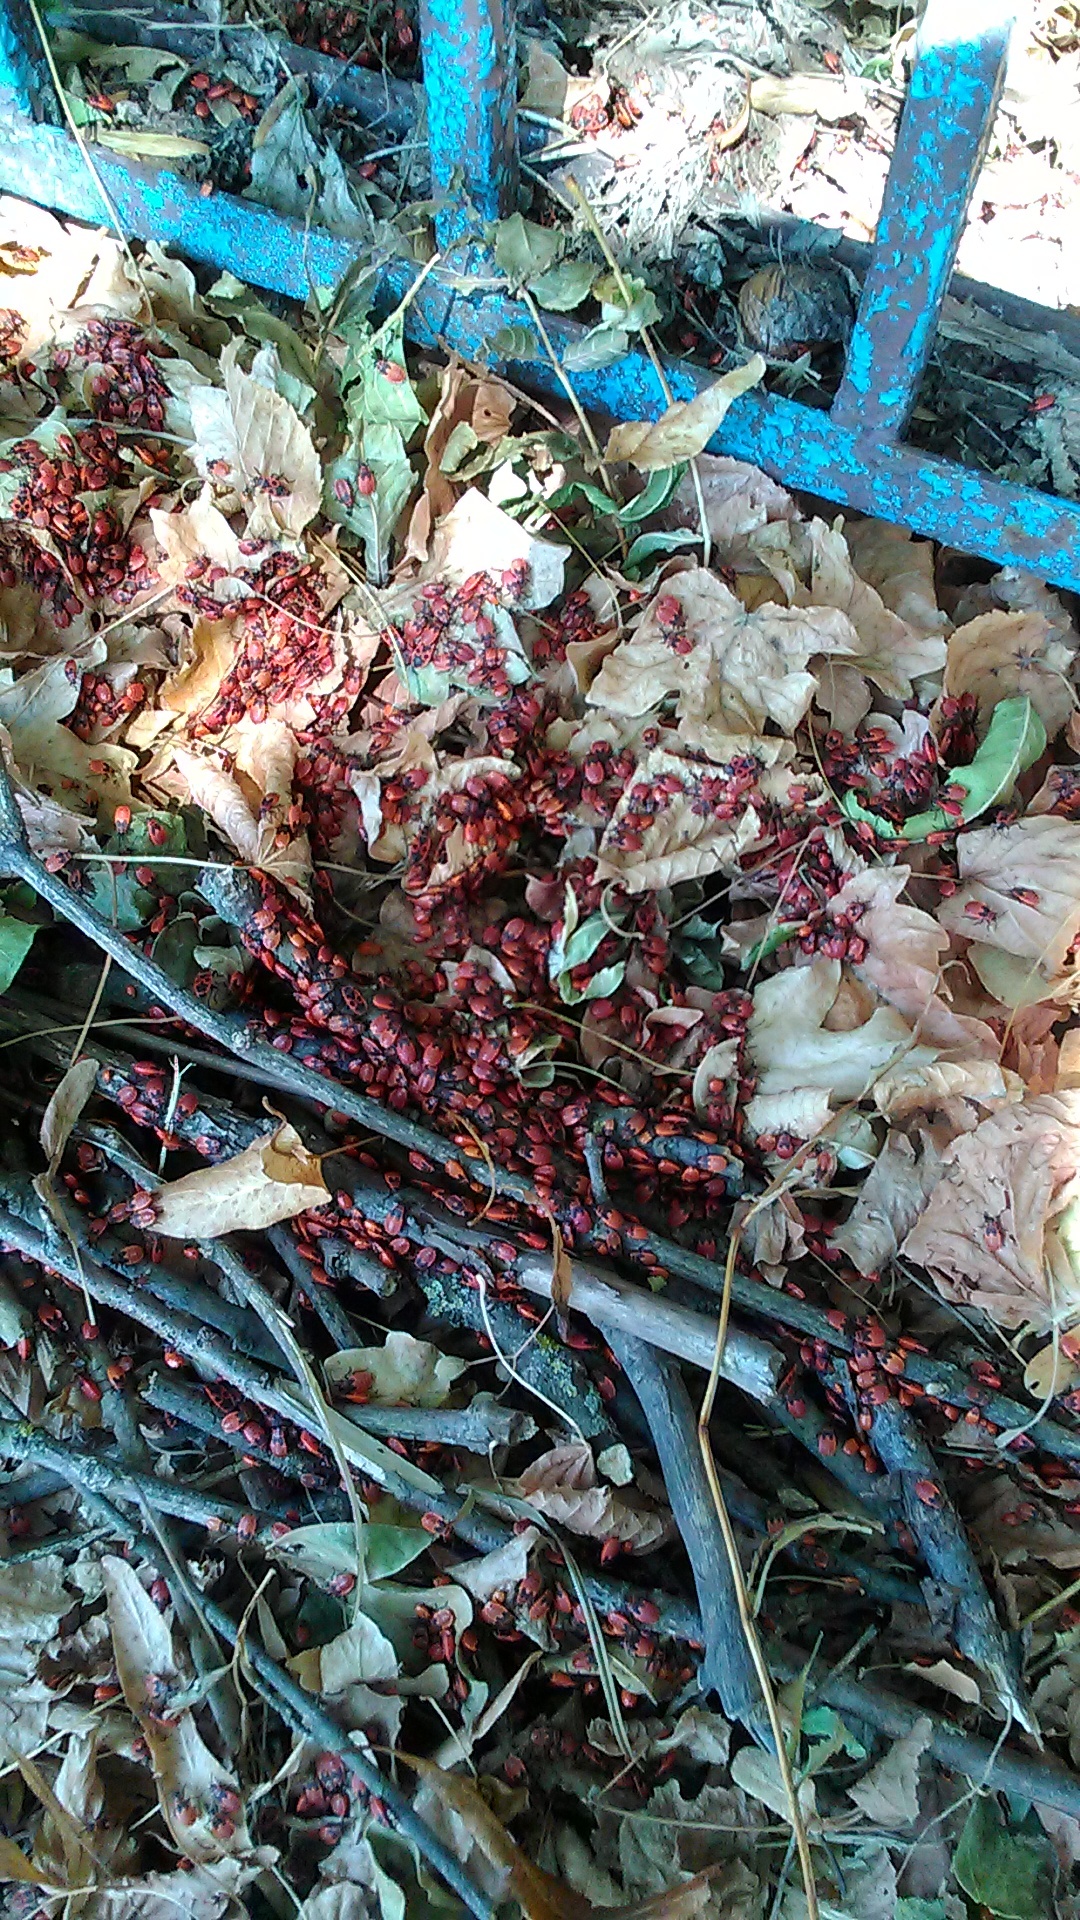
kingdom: Animalia
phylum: Arthropoda
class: Insecta
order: Hemiptera
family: Pyrrhocoridae
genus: Pyrrhocoris
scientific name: Pyrrhocoris apterus
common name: Firebug
